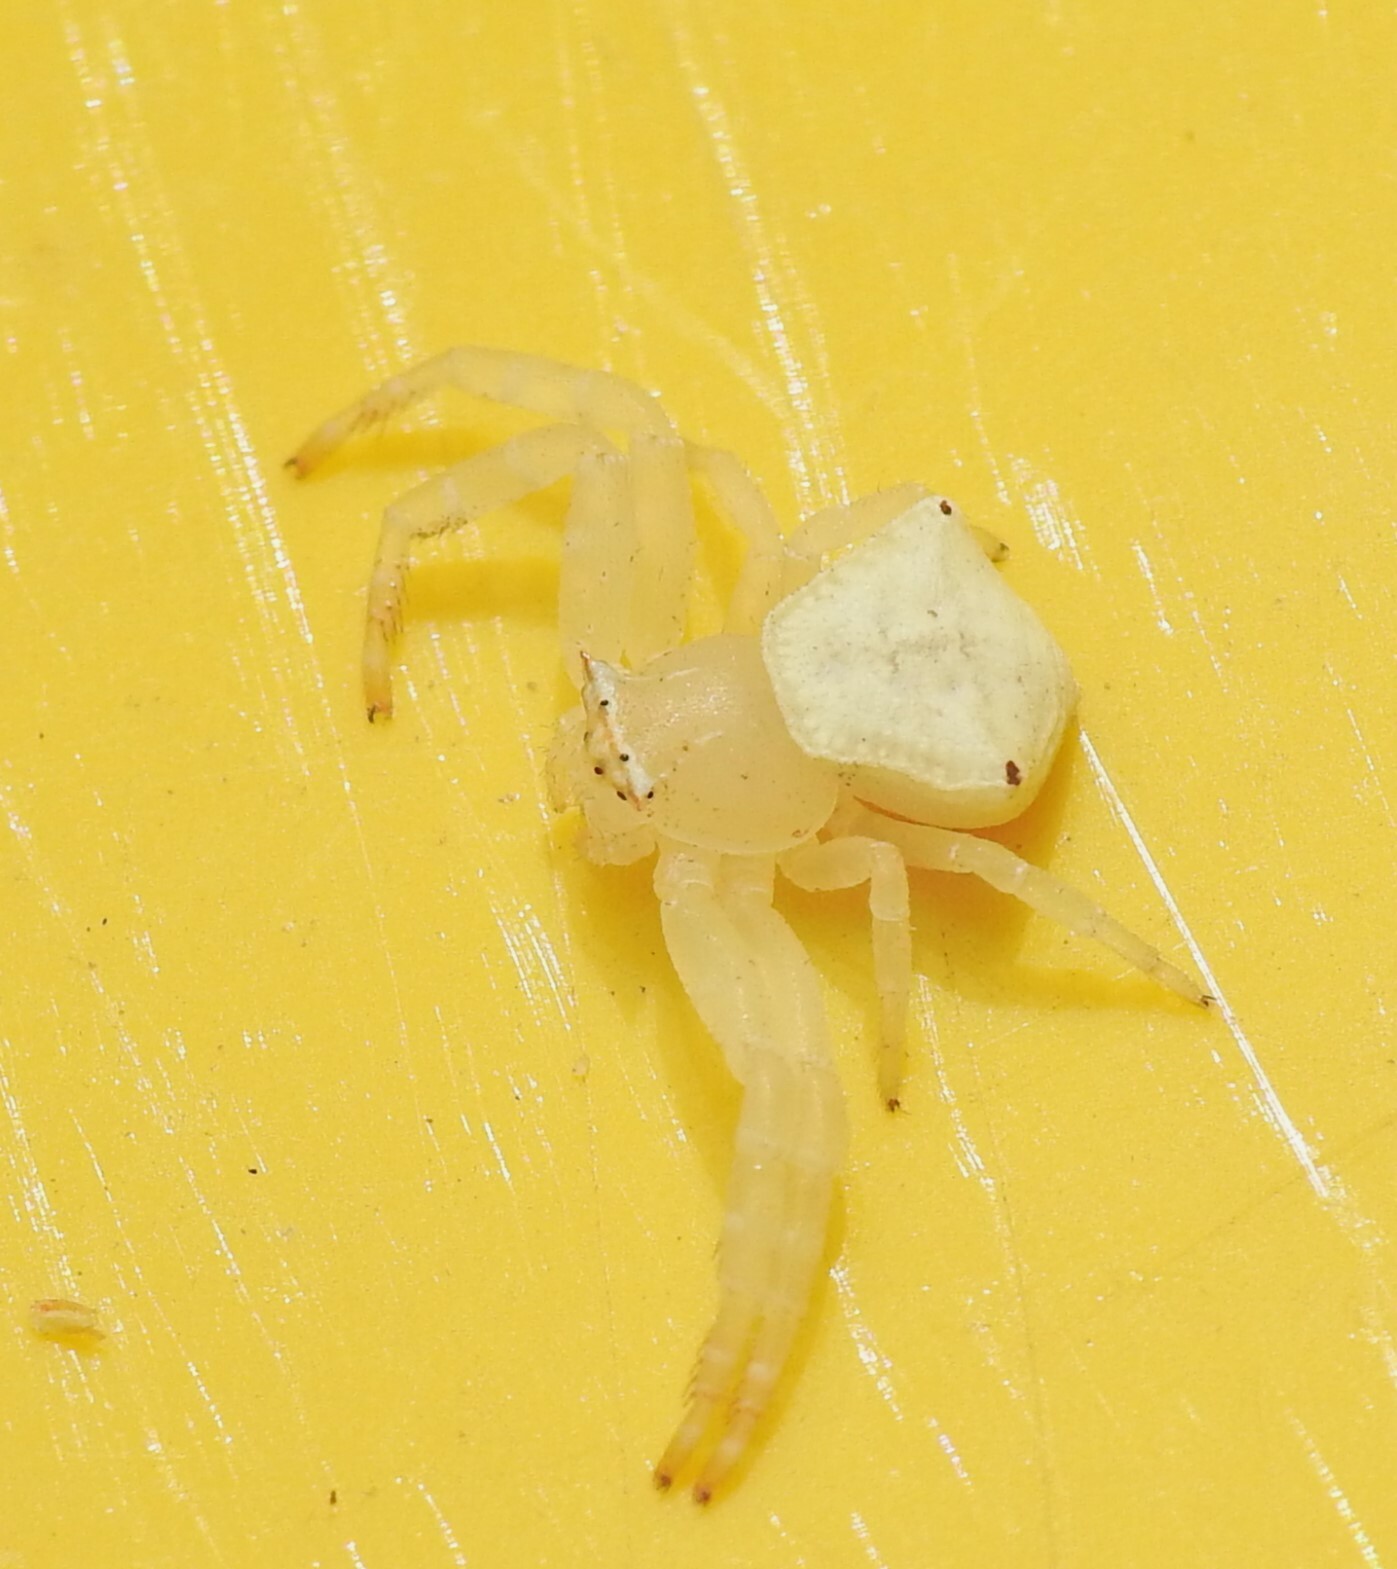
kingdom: Animalia
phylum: Arthropoda
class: Arachnida
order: Araneae
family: Thomisidae
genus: Thomisus
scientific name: Thomisus spectabilis
